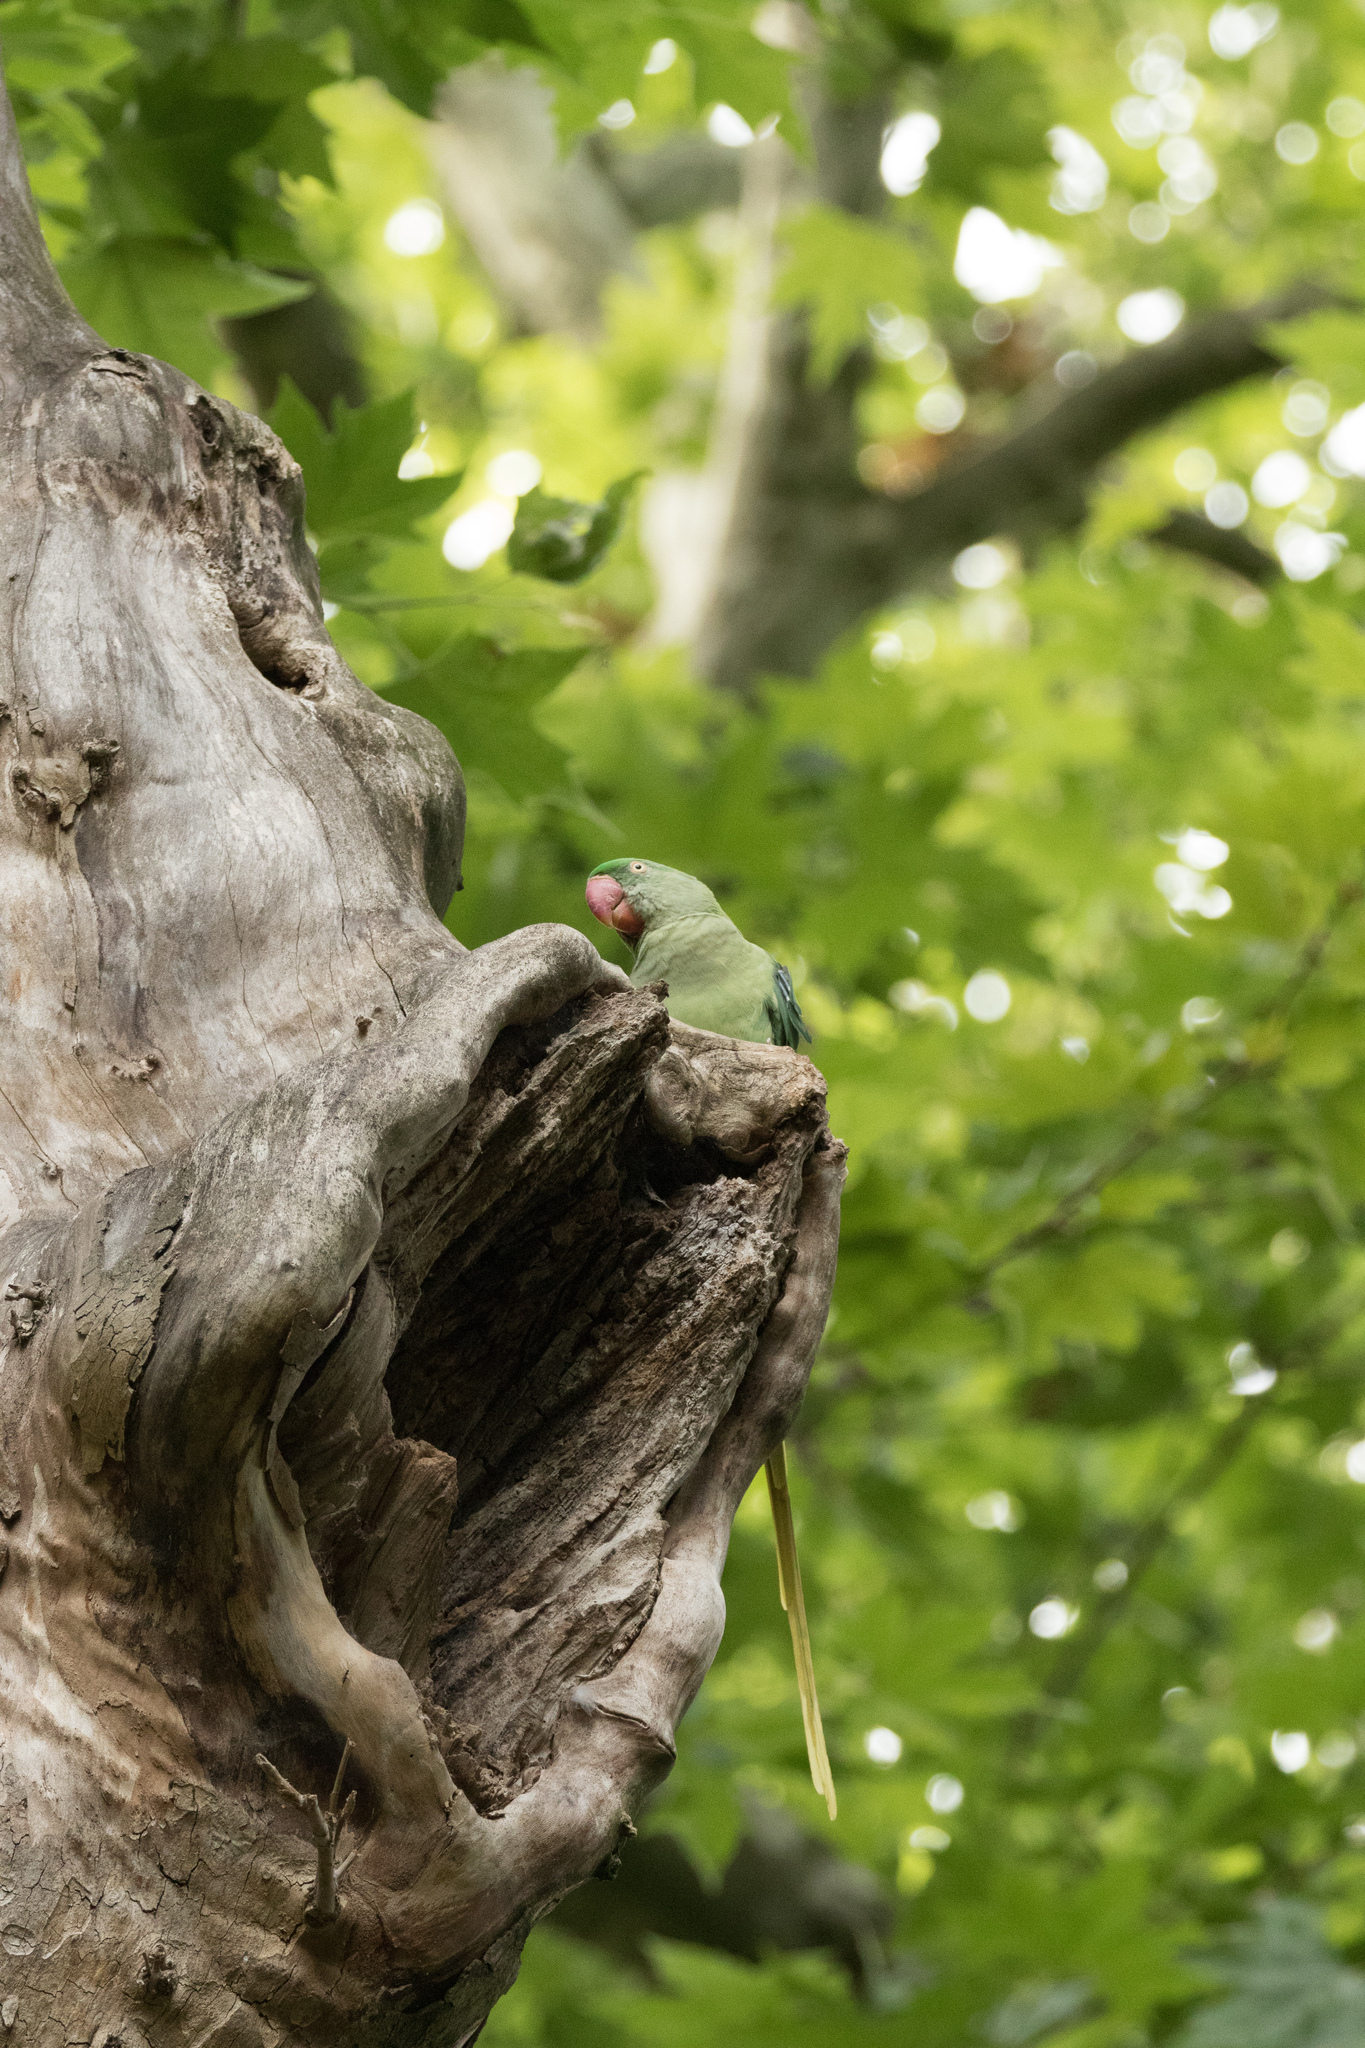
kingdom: Animalia
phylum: Chordata
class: Aves
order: Psittaciformes
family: Psittacidae
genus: Psittacula
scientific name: Psittacula eupatria
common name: Alexandrine parakeet
